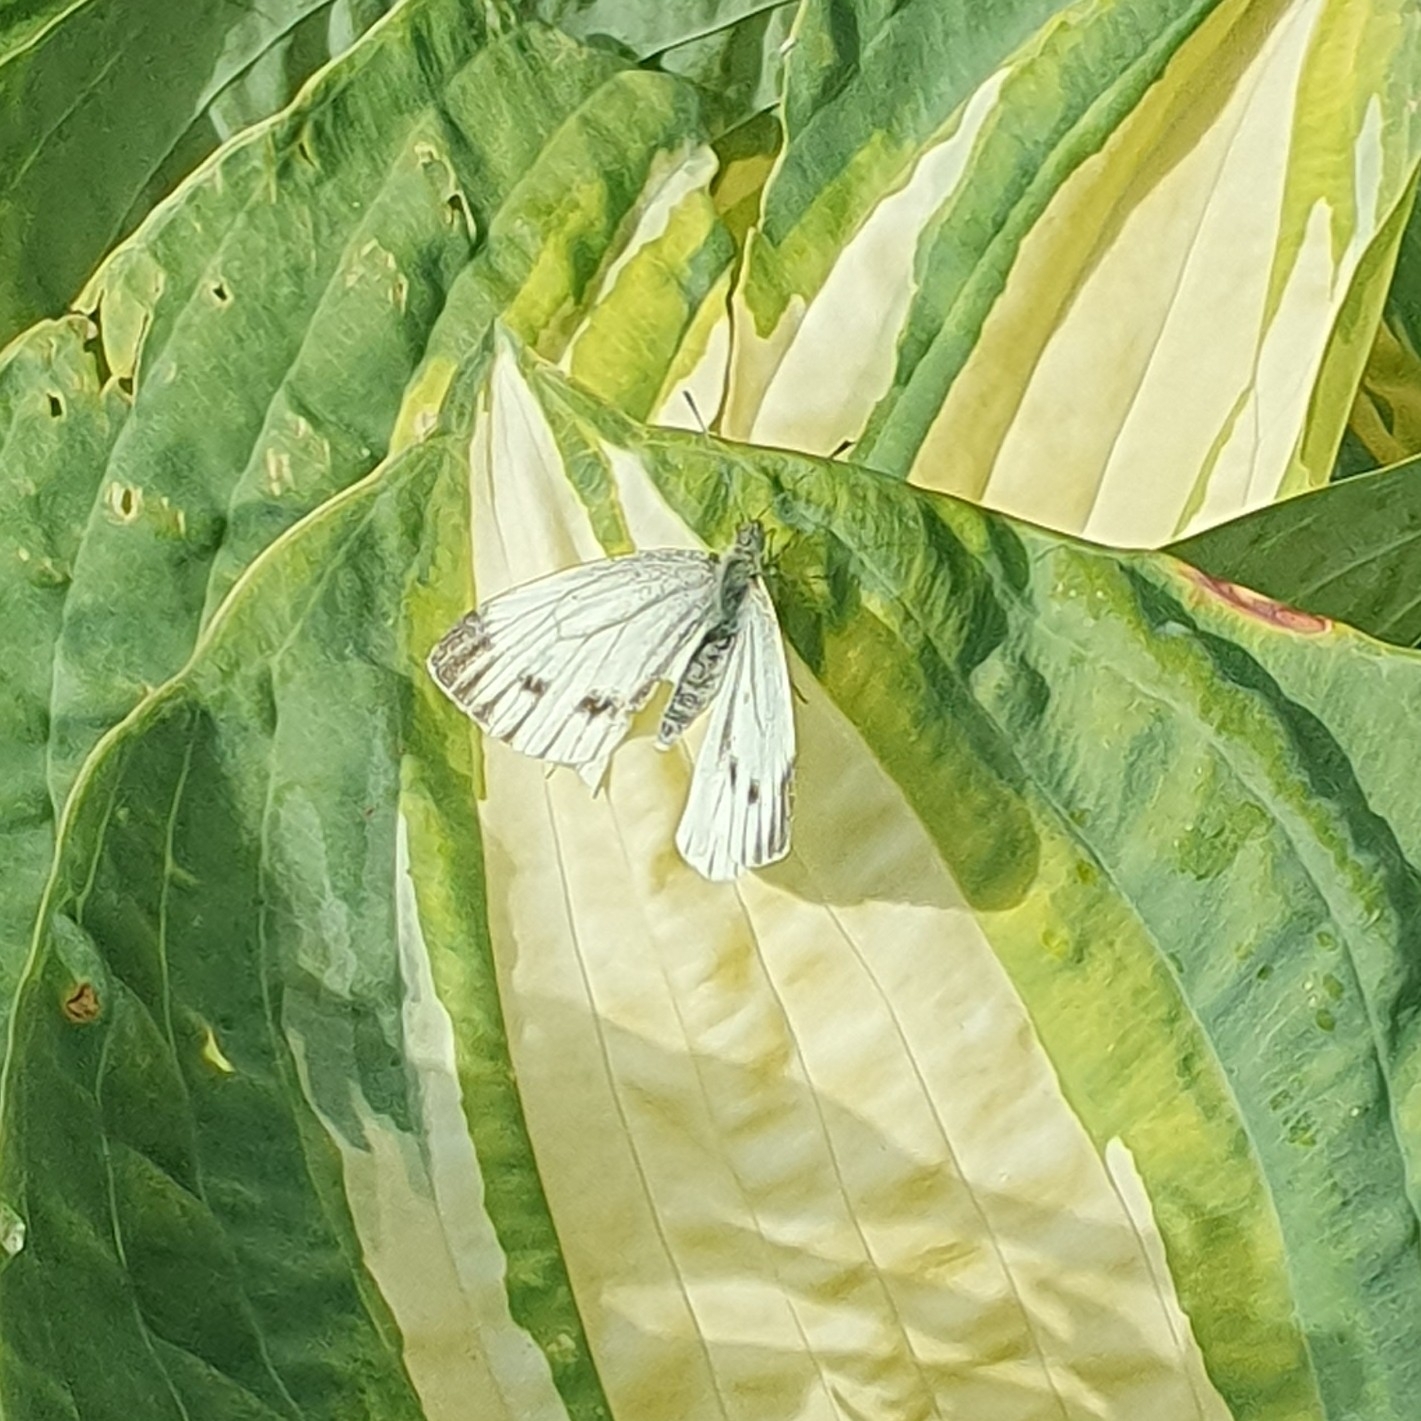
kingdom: Animalia
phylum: Arthropoda
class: Insecta
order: Lepidoptera
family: Pieridae
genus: Pieris
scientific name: Pieris napi
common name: Green-veined white
